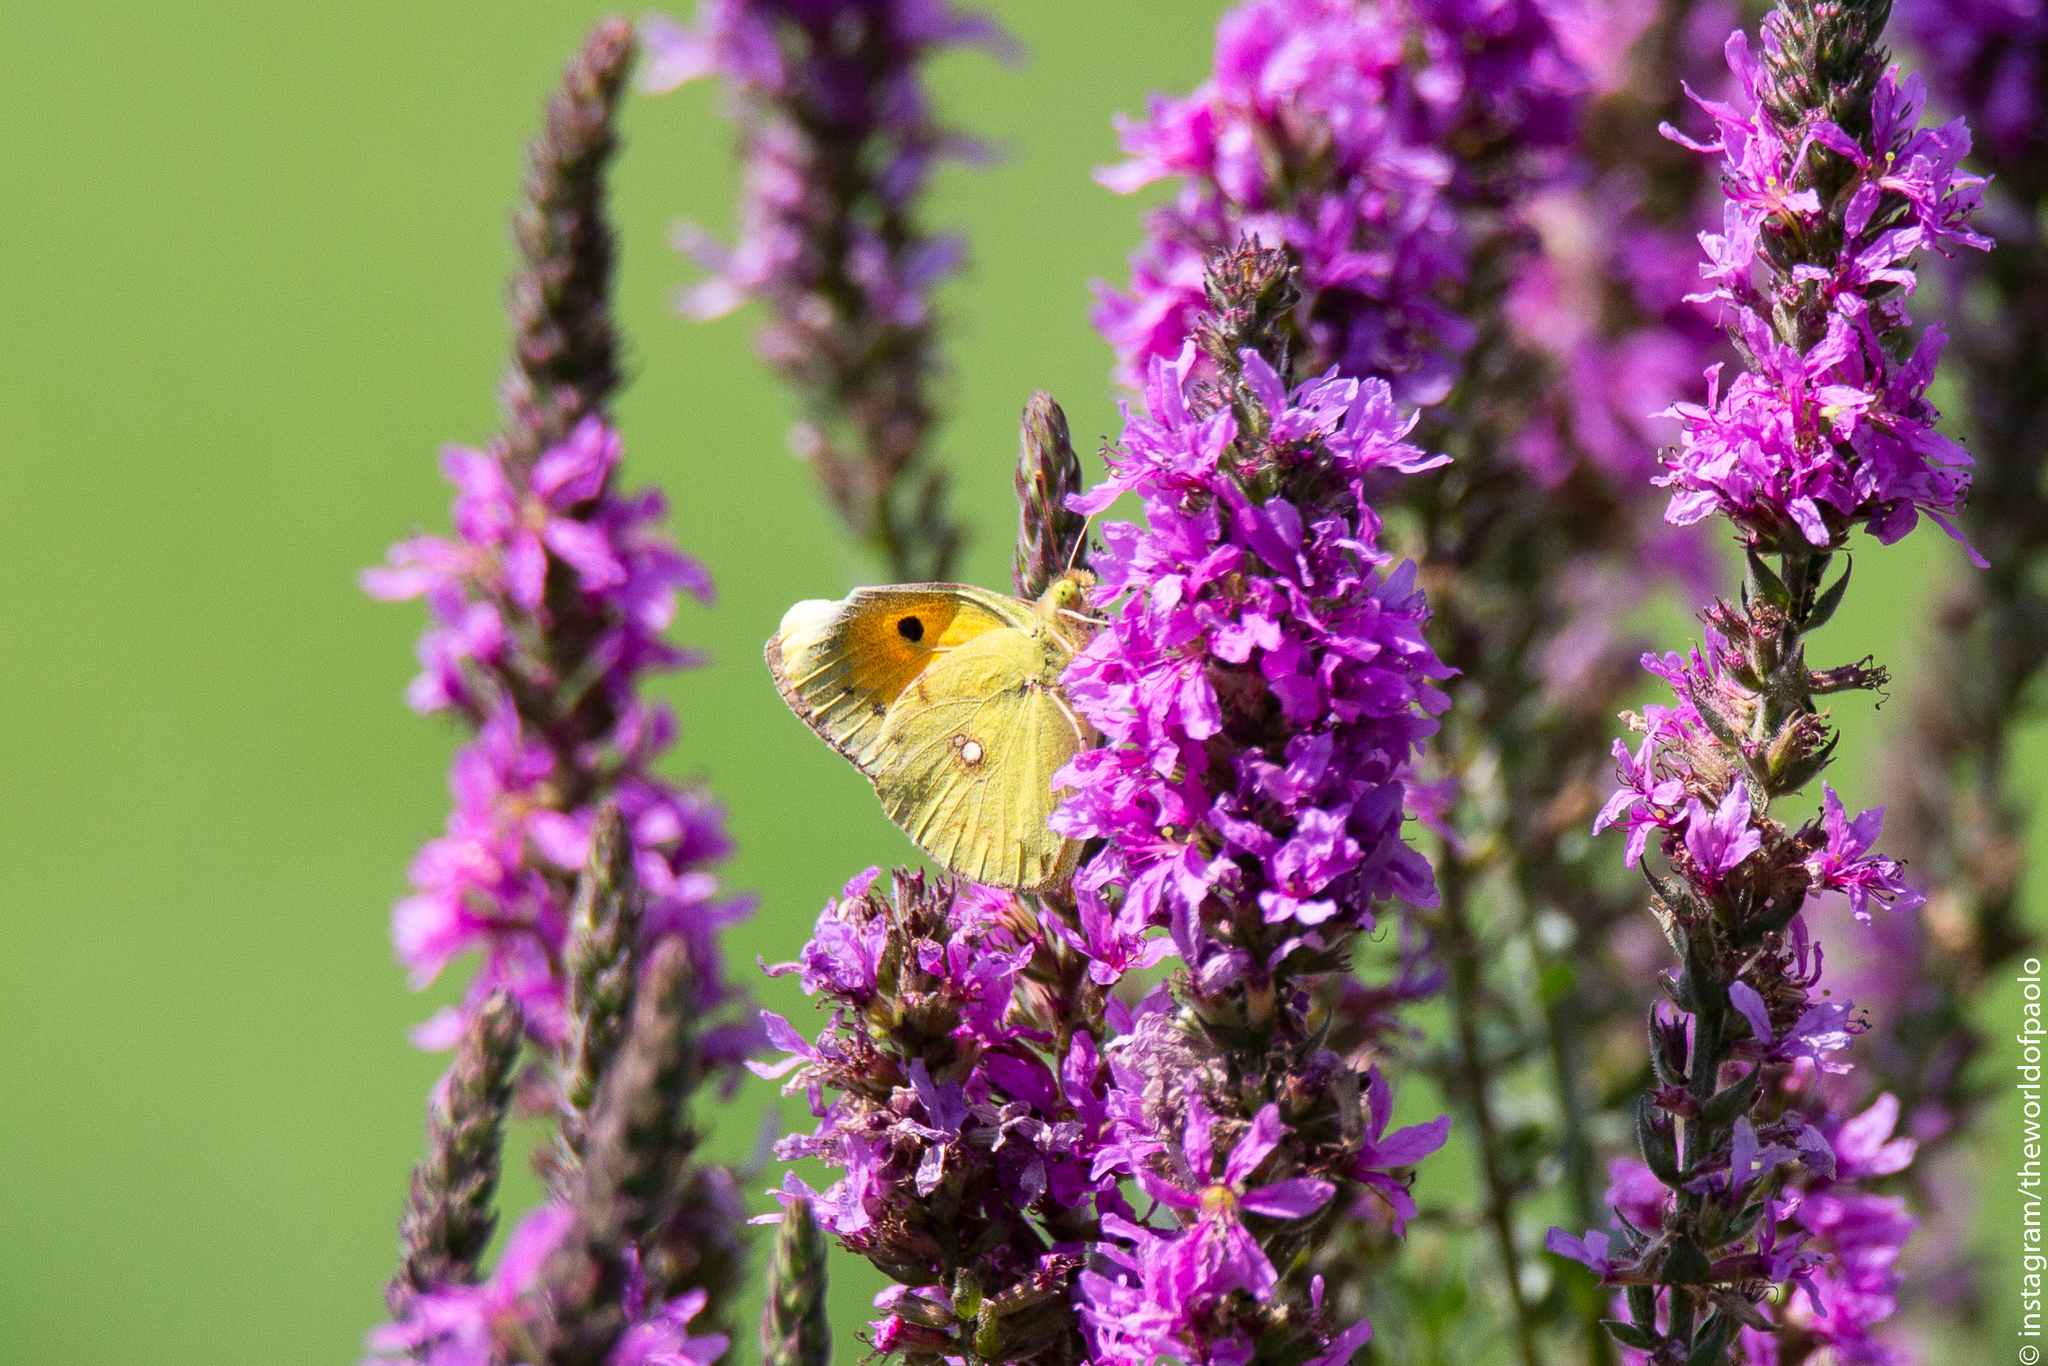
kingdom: Animalia
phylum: Arthropoda
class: Insecta
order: Lepidoptera
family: Pieridae
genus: Colias
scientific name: Colias croceus
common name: Clouded yellow
